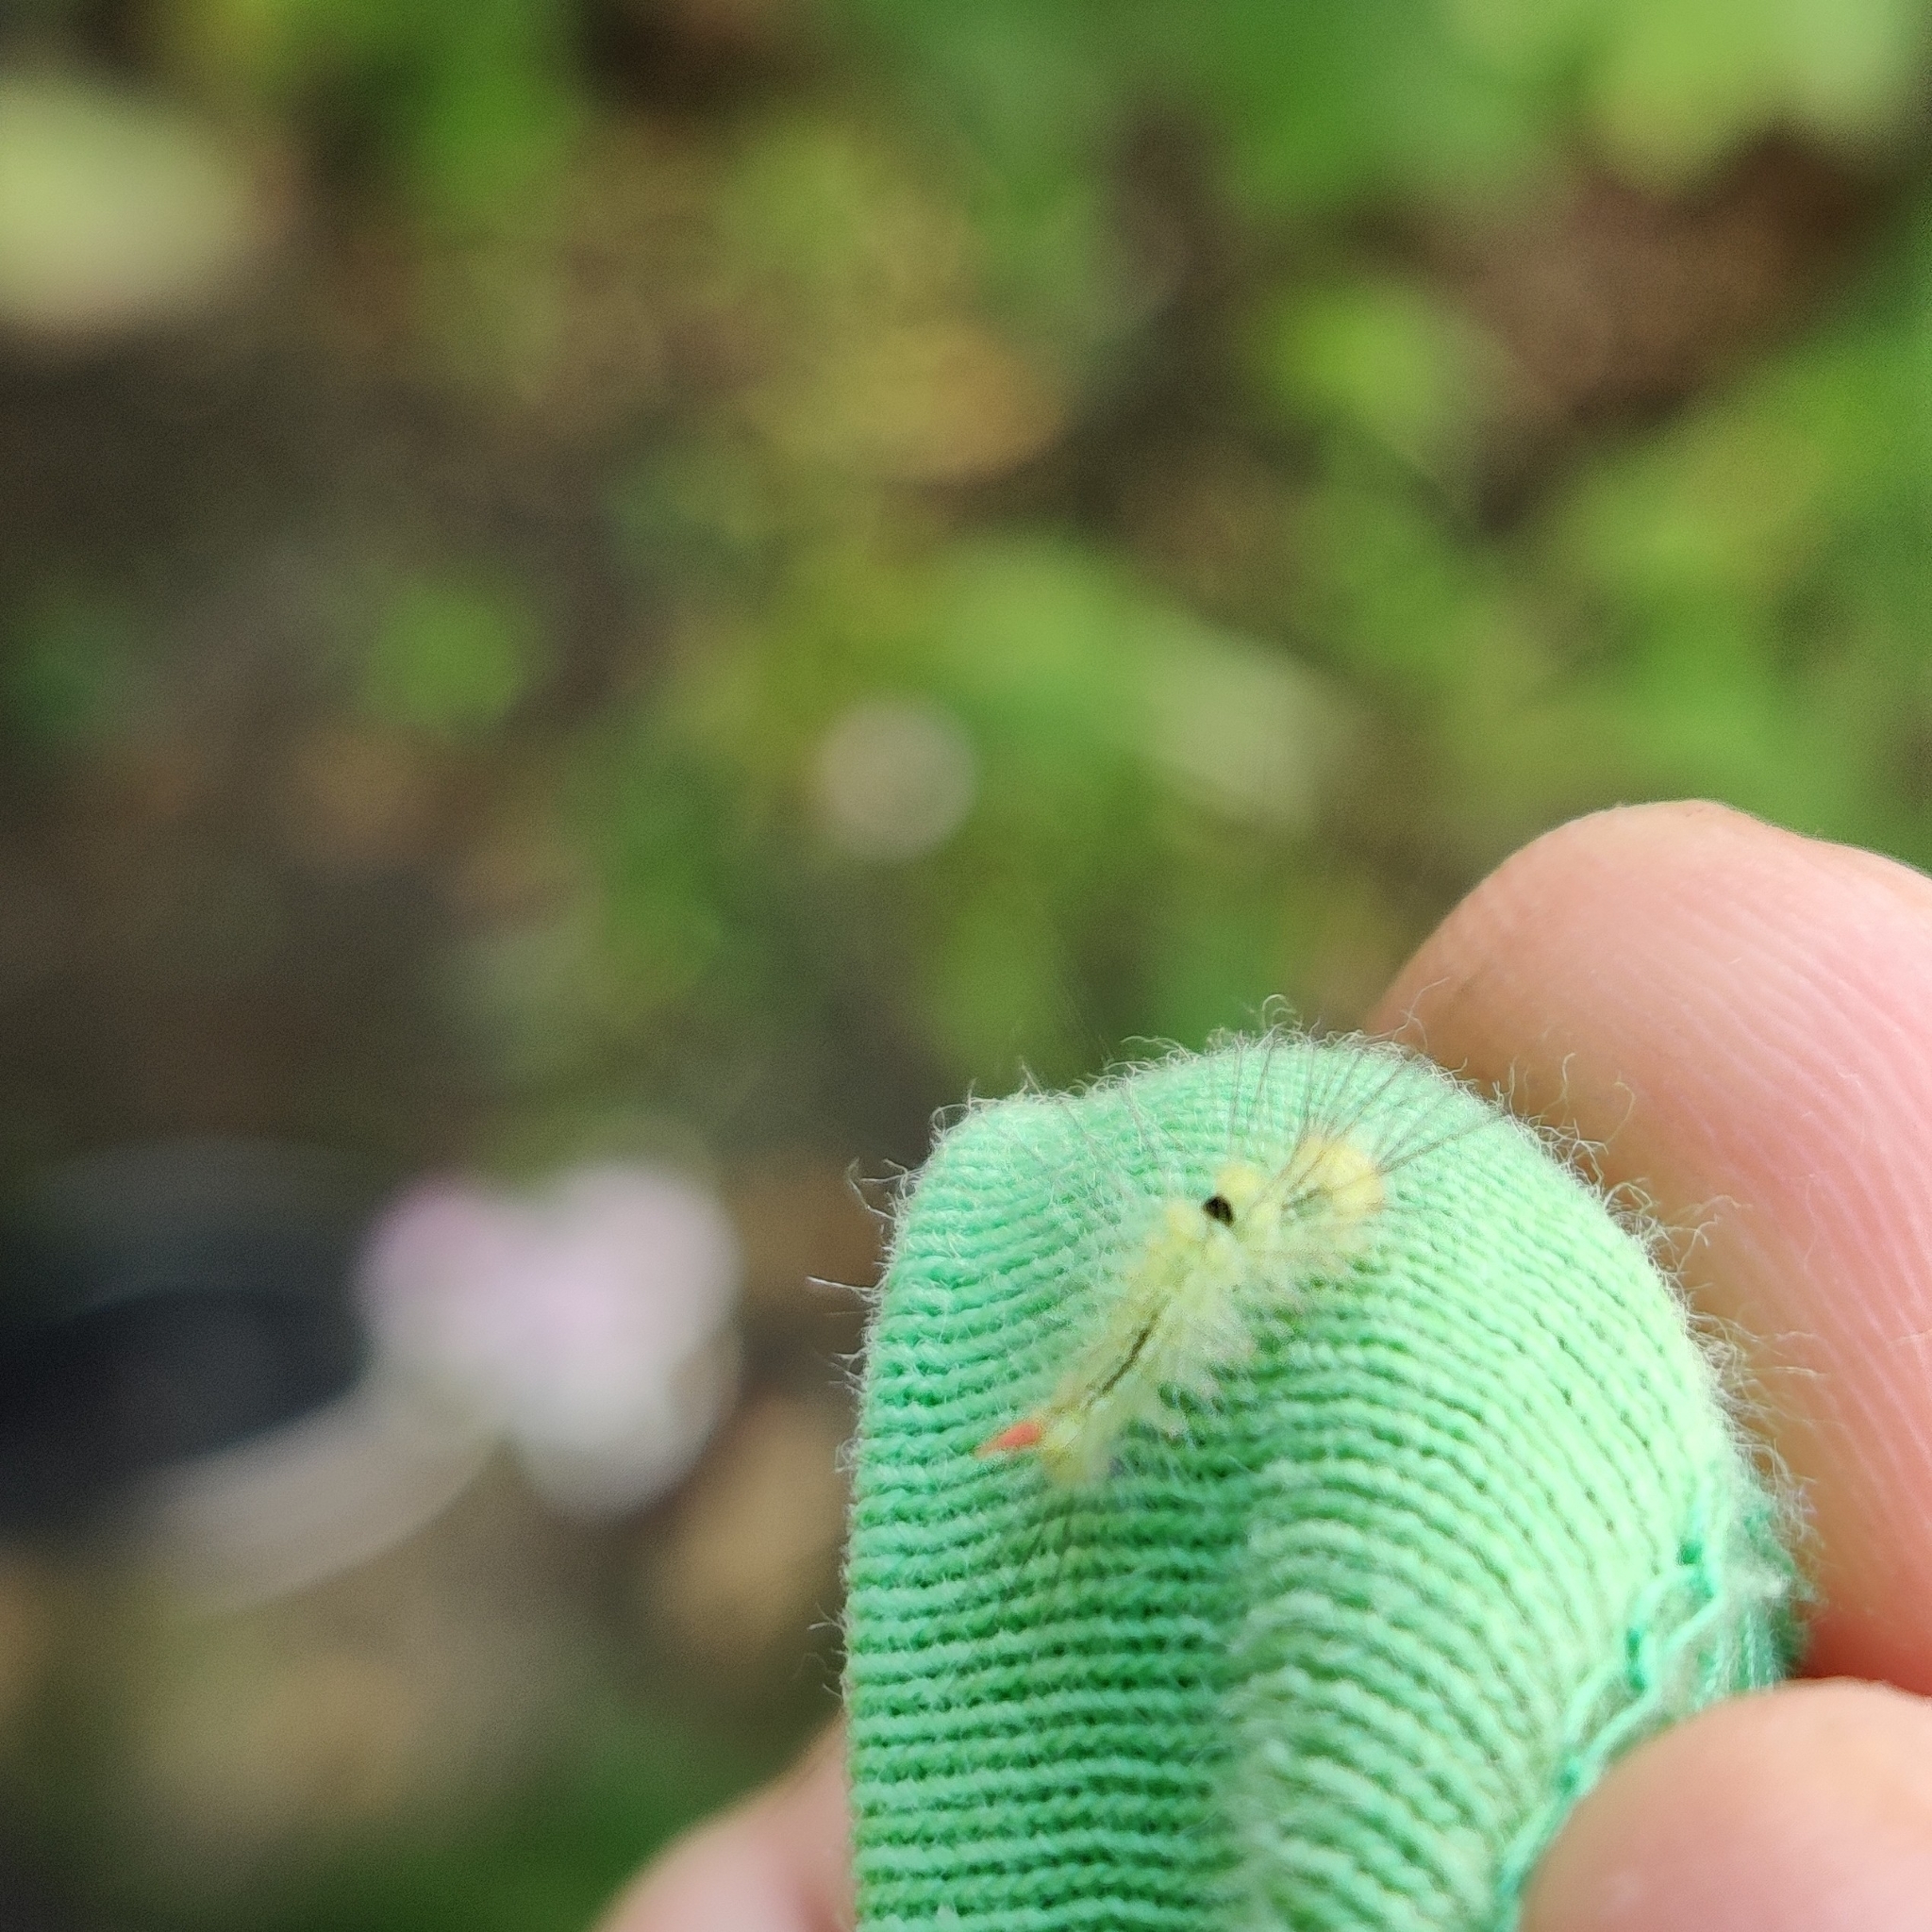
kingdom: Animalia
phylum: Arthropoda
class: Insecta
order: Lepidoptera
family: Erebidae
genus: Calliteara
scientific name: Calliteara pudibunda
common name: Pale tussock
